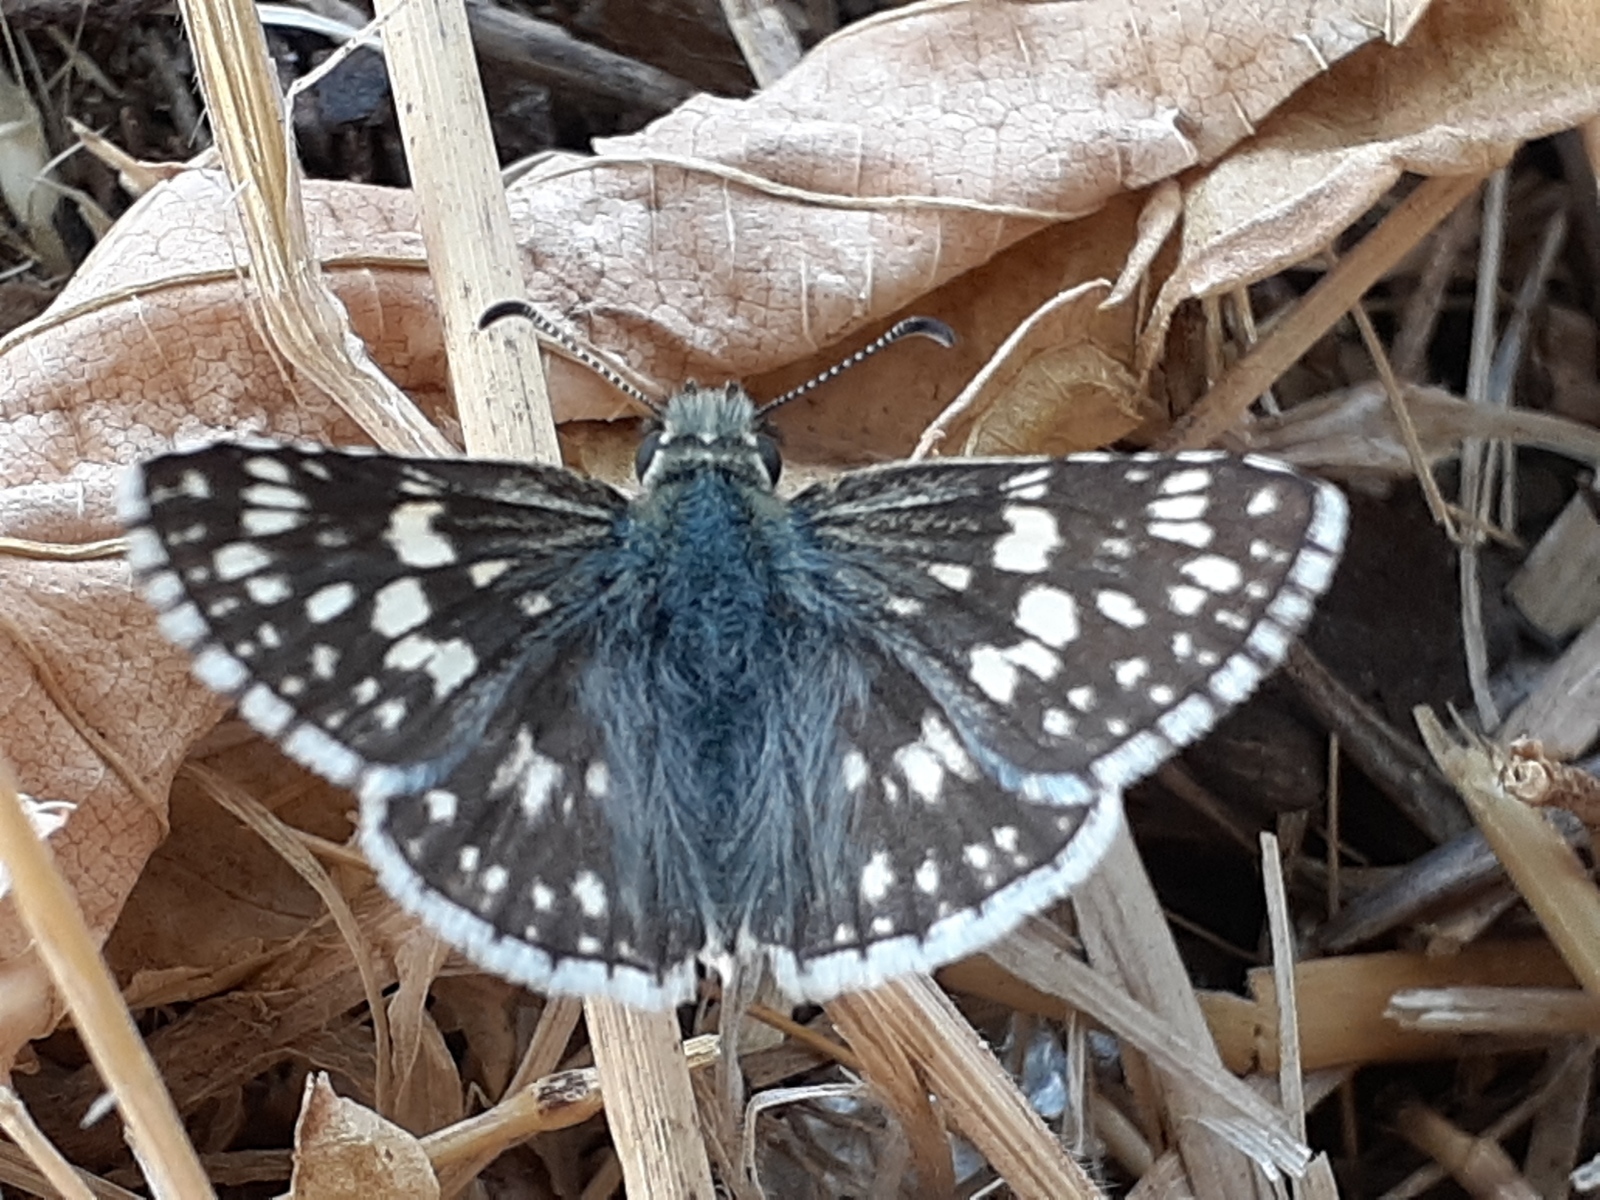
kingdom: Animalia
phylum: Arthropoda
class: Insecta
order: Lepidoptera
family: Hesperiidae
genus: Burnsius
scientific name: Burnsius communis
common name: Common checkered-skipper
